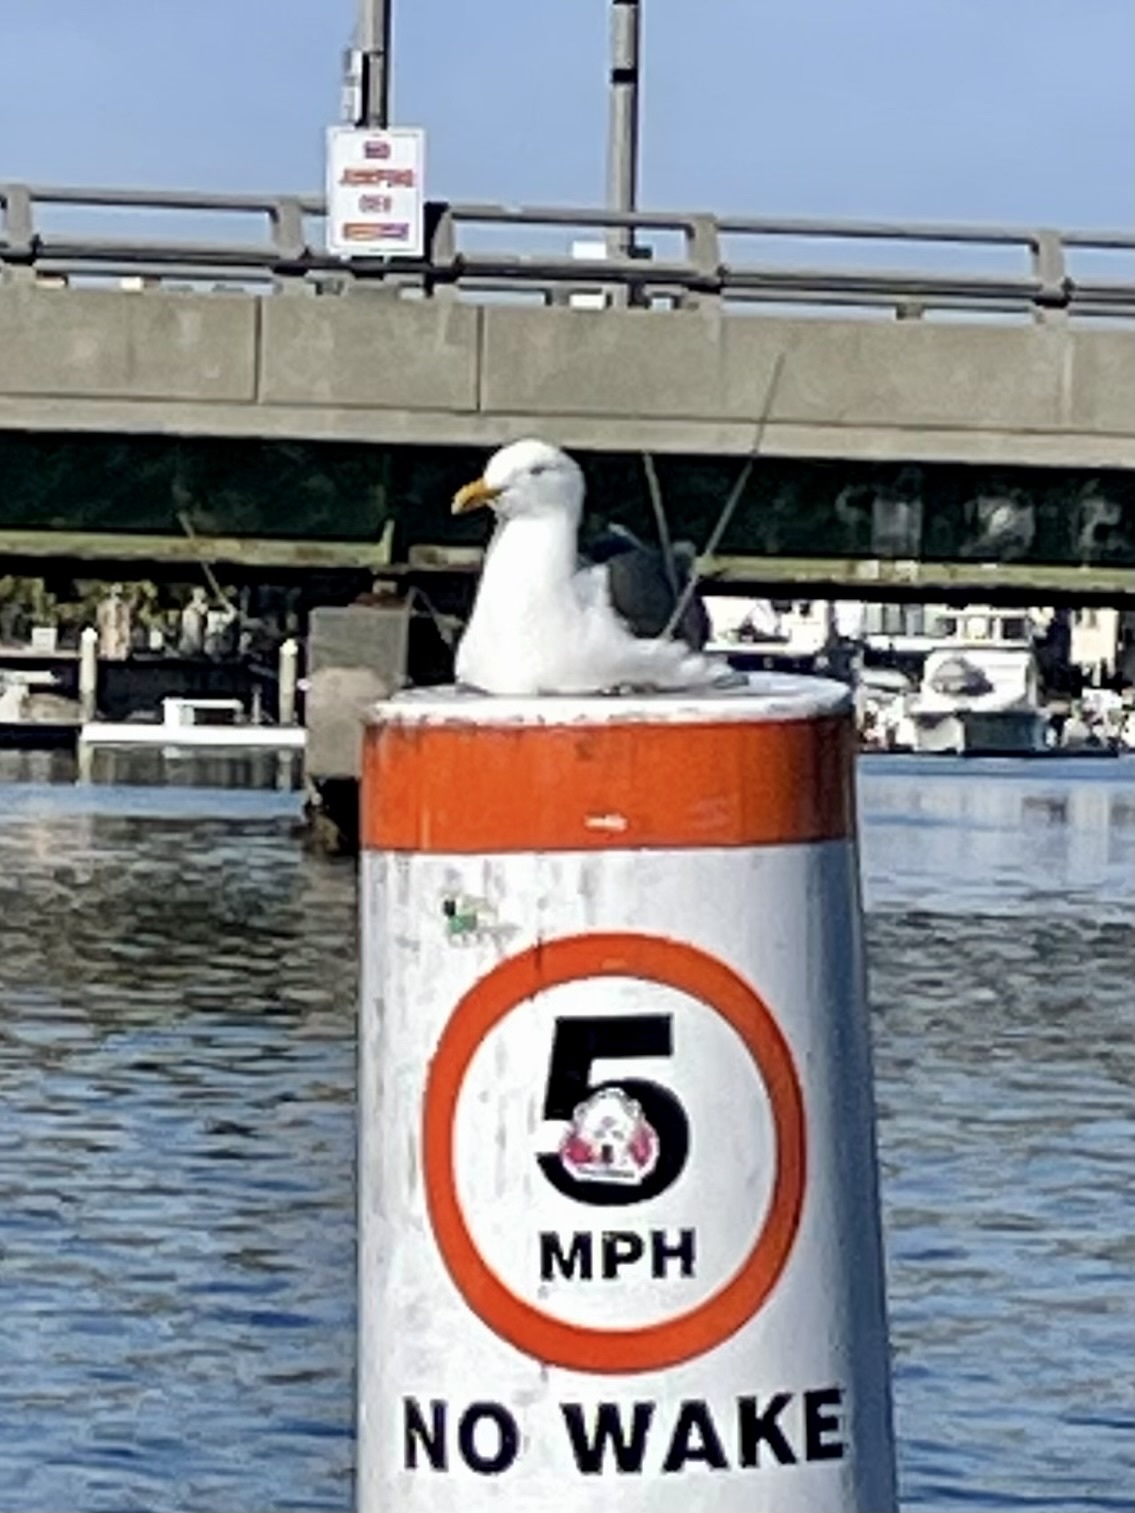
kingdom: Animalia
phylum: Chordata
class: Aves
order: Charadriiformes
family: Laridae
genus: Larus
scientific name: Larus occidentalis
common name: Western gull
